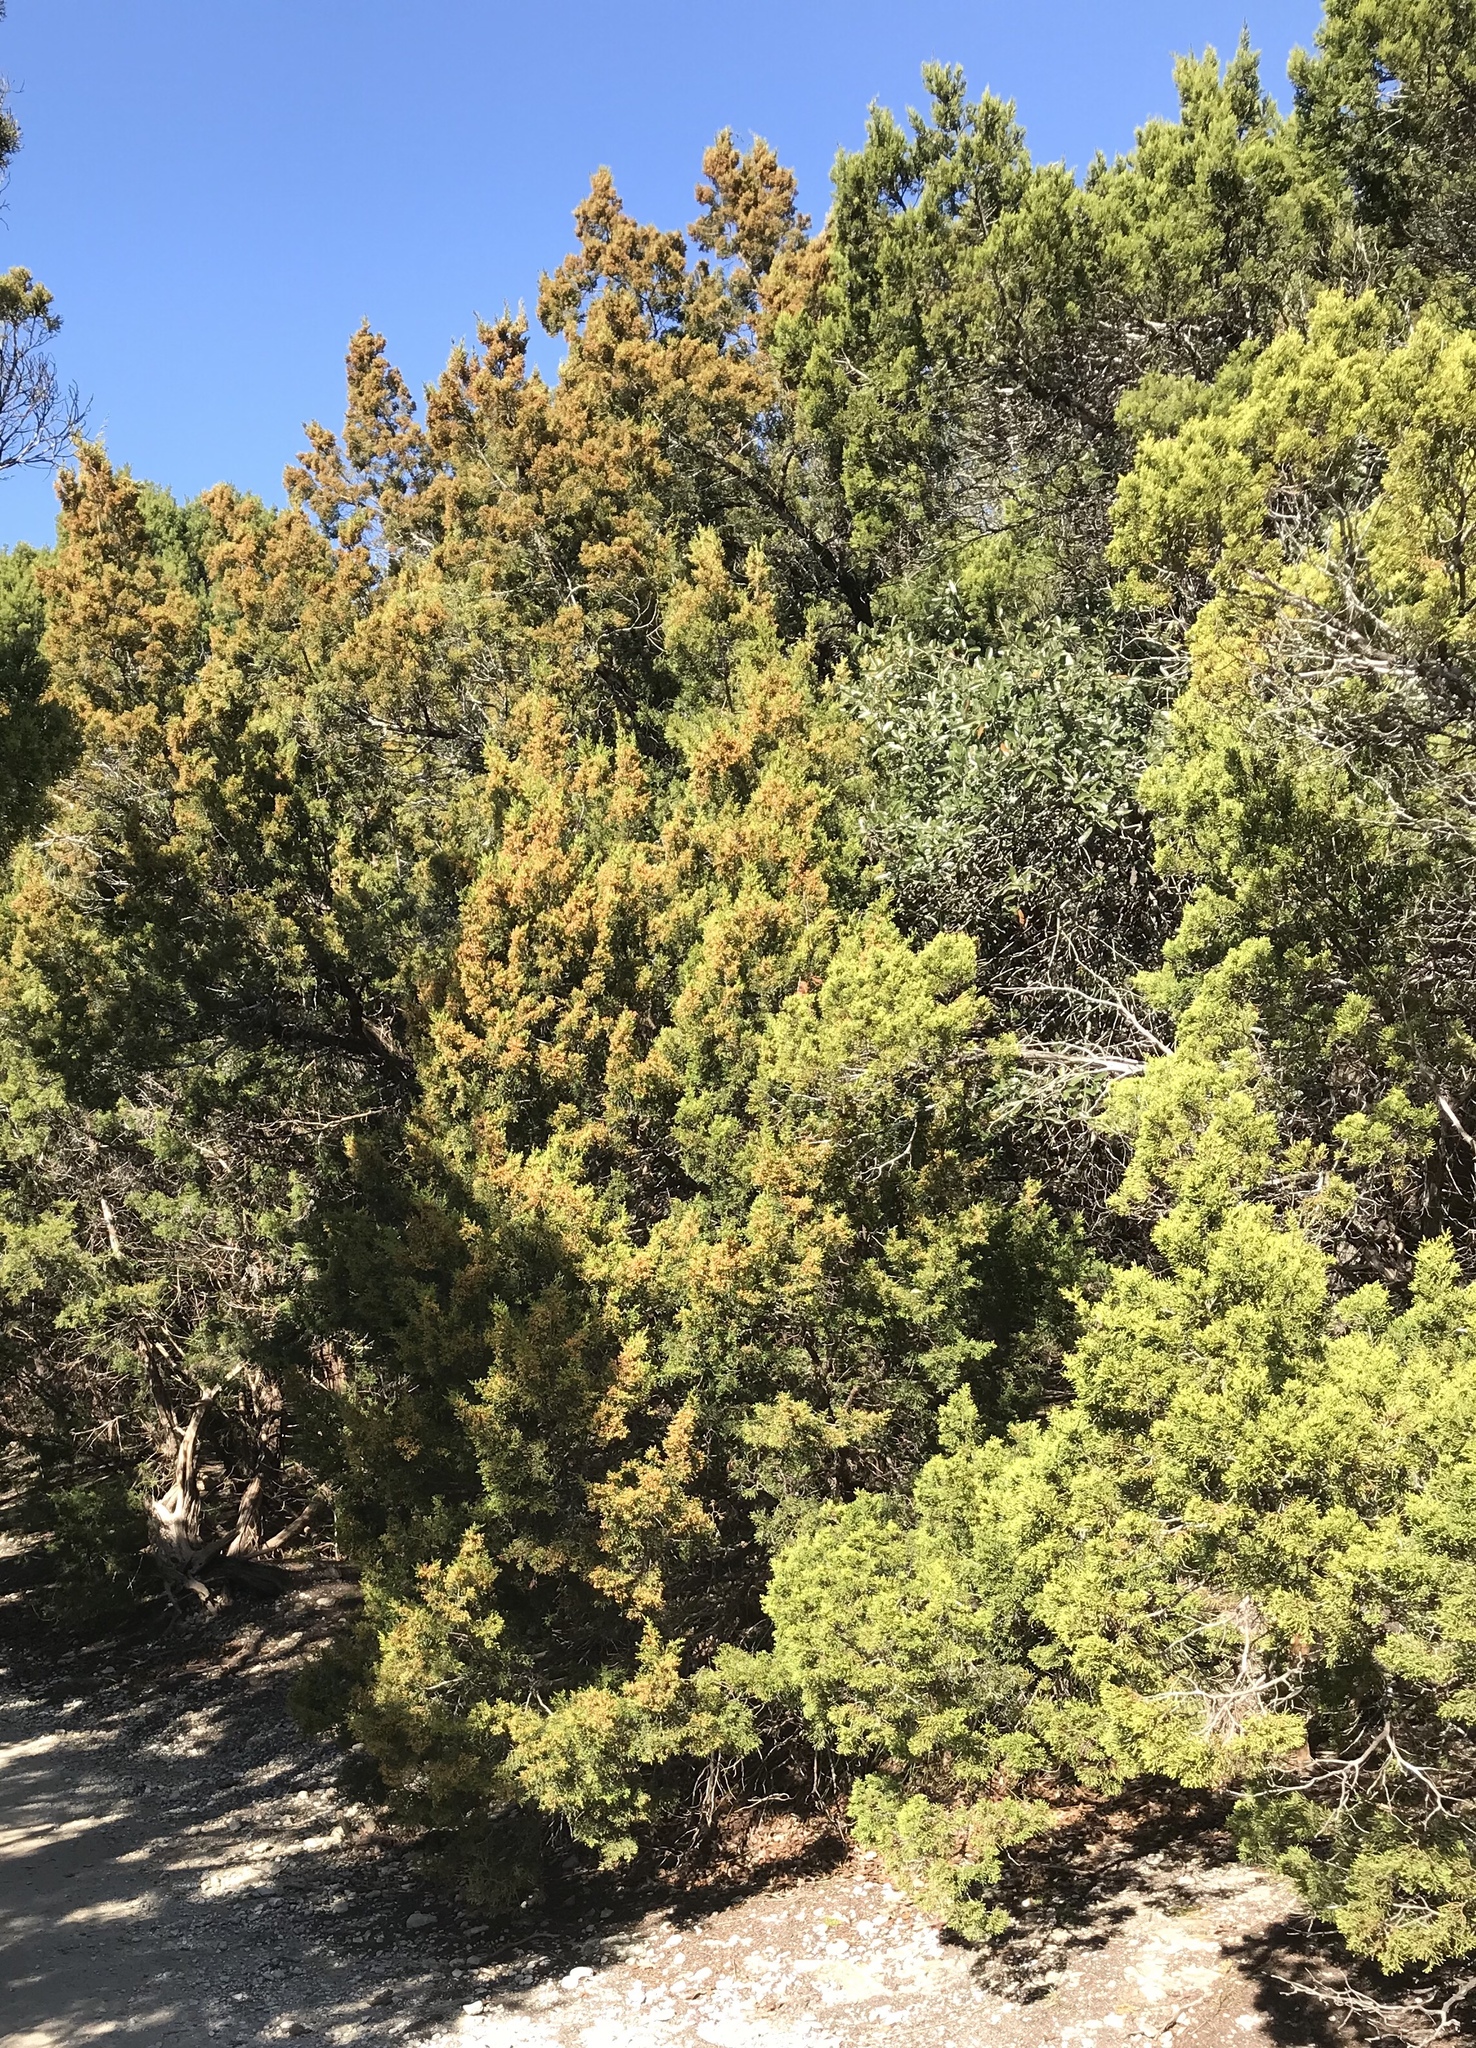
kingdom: Plantae
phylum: Tracheophyta
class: Pinopsida
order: Pinales
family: Cupressaceae
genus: Juniperus
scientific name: Juniperus ashei
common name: Mexican juniper
